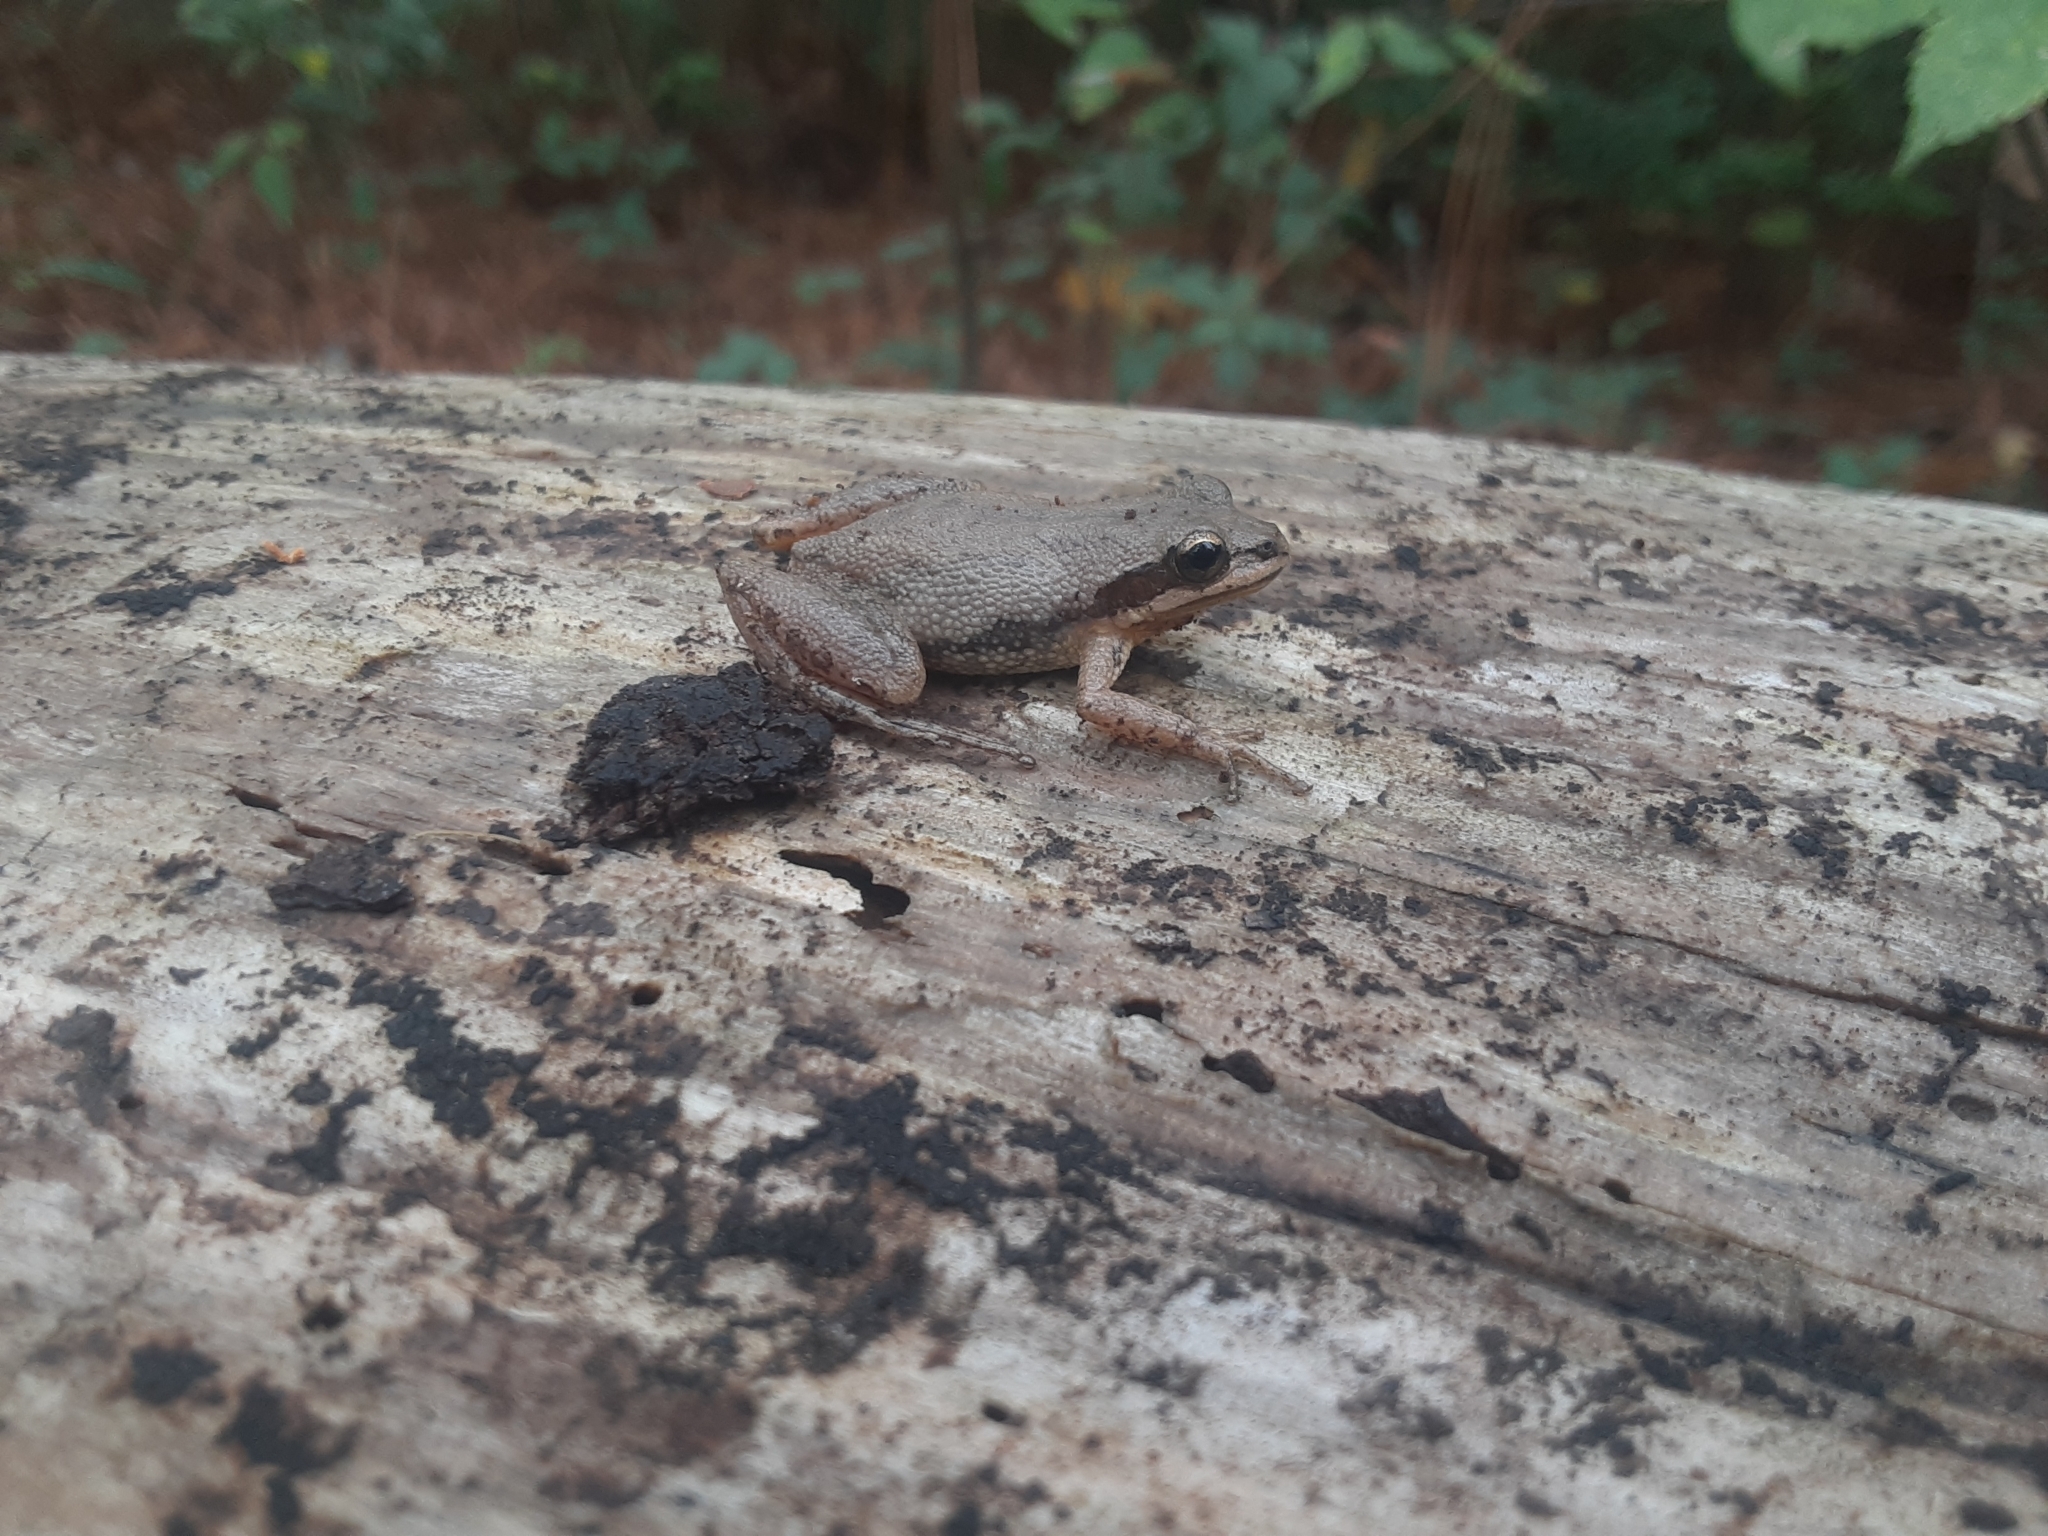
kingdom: Animalia
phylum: Chordata
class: Amphibia
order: Anura
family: Hylidae
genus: Pseudacris
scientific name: Pseudacris fouquettei
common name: Cajun chorus frog
